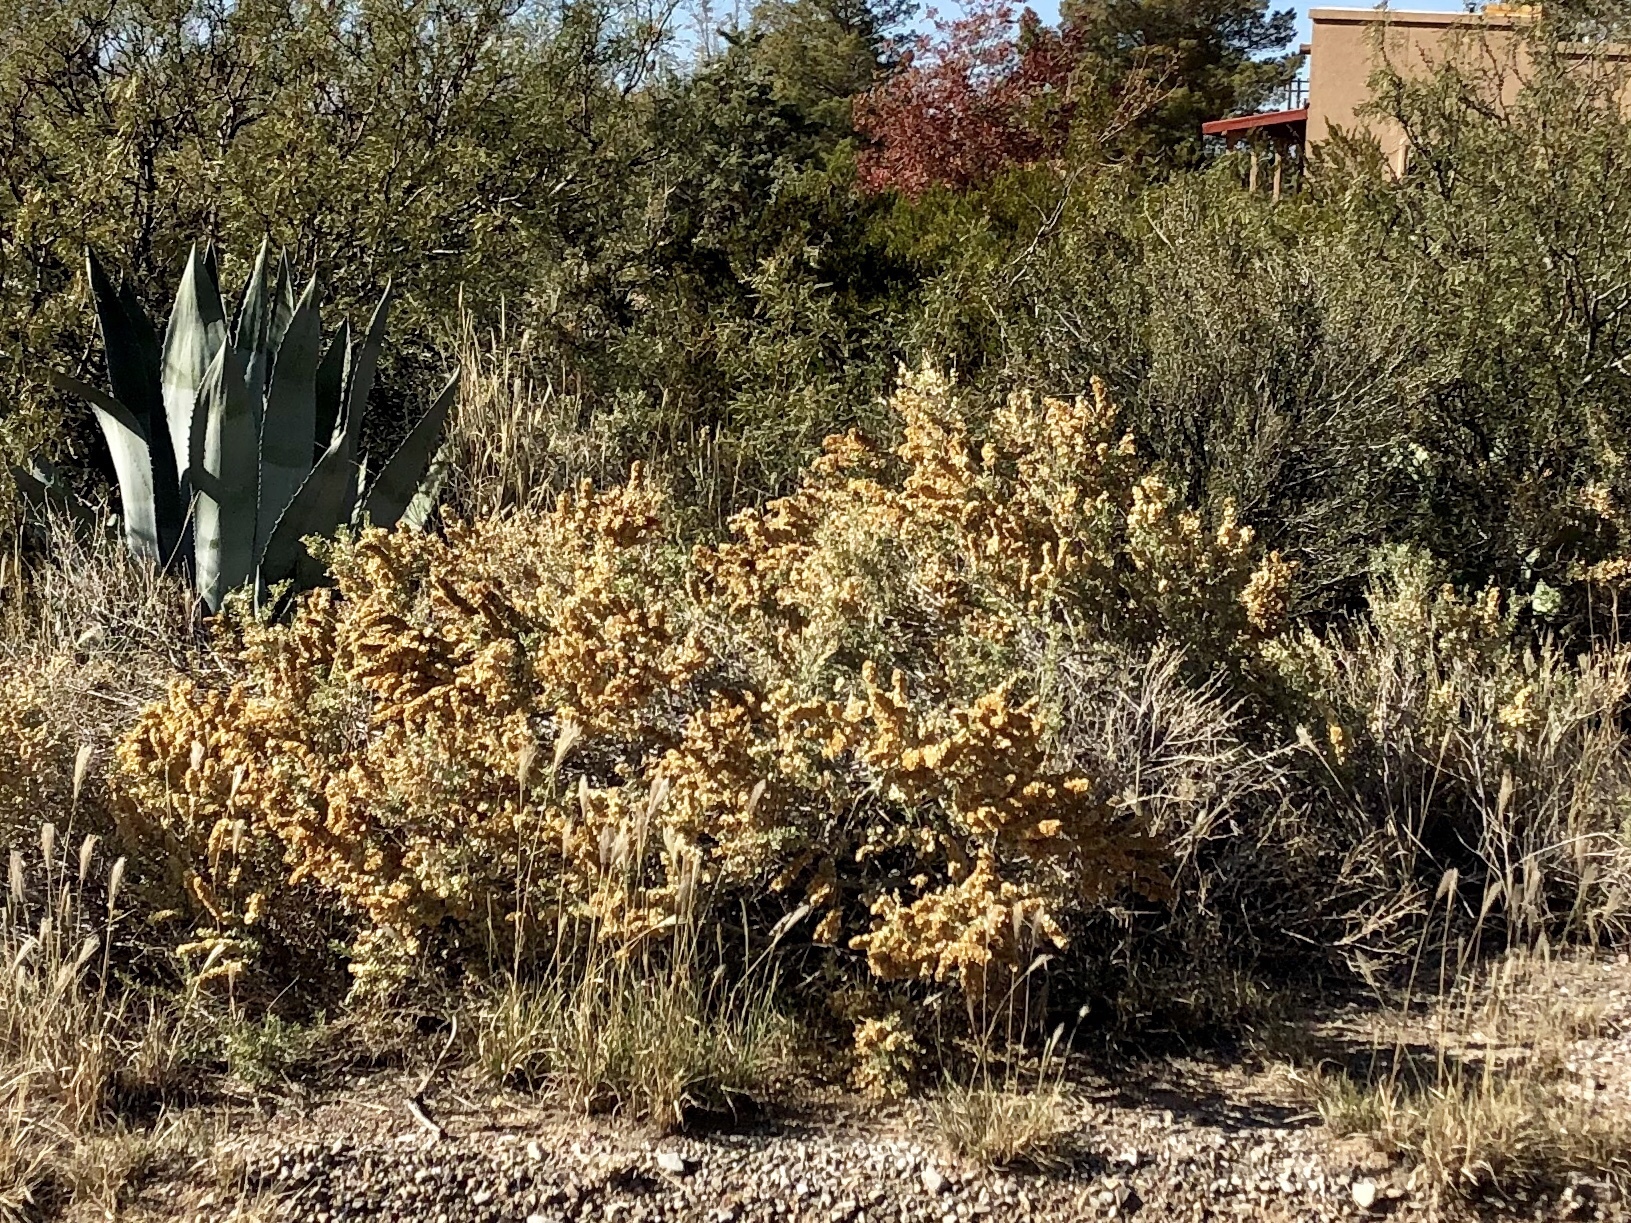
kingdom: Plantae
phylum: Tracheophyta
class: Magnoliopsida
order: Caryophyllales
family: Amaranthaceae
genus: Atriplex
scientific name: Atriplex canescens
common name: Four-wing saltbush
